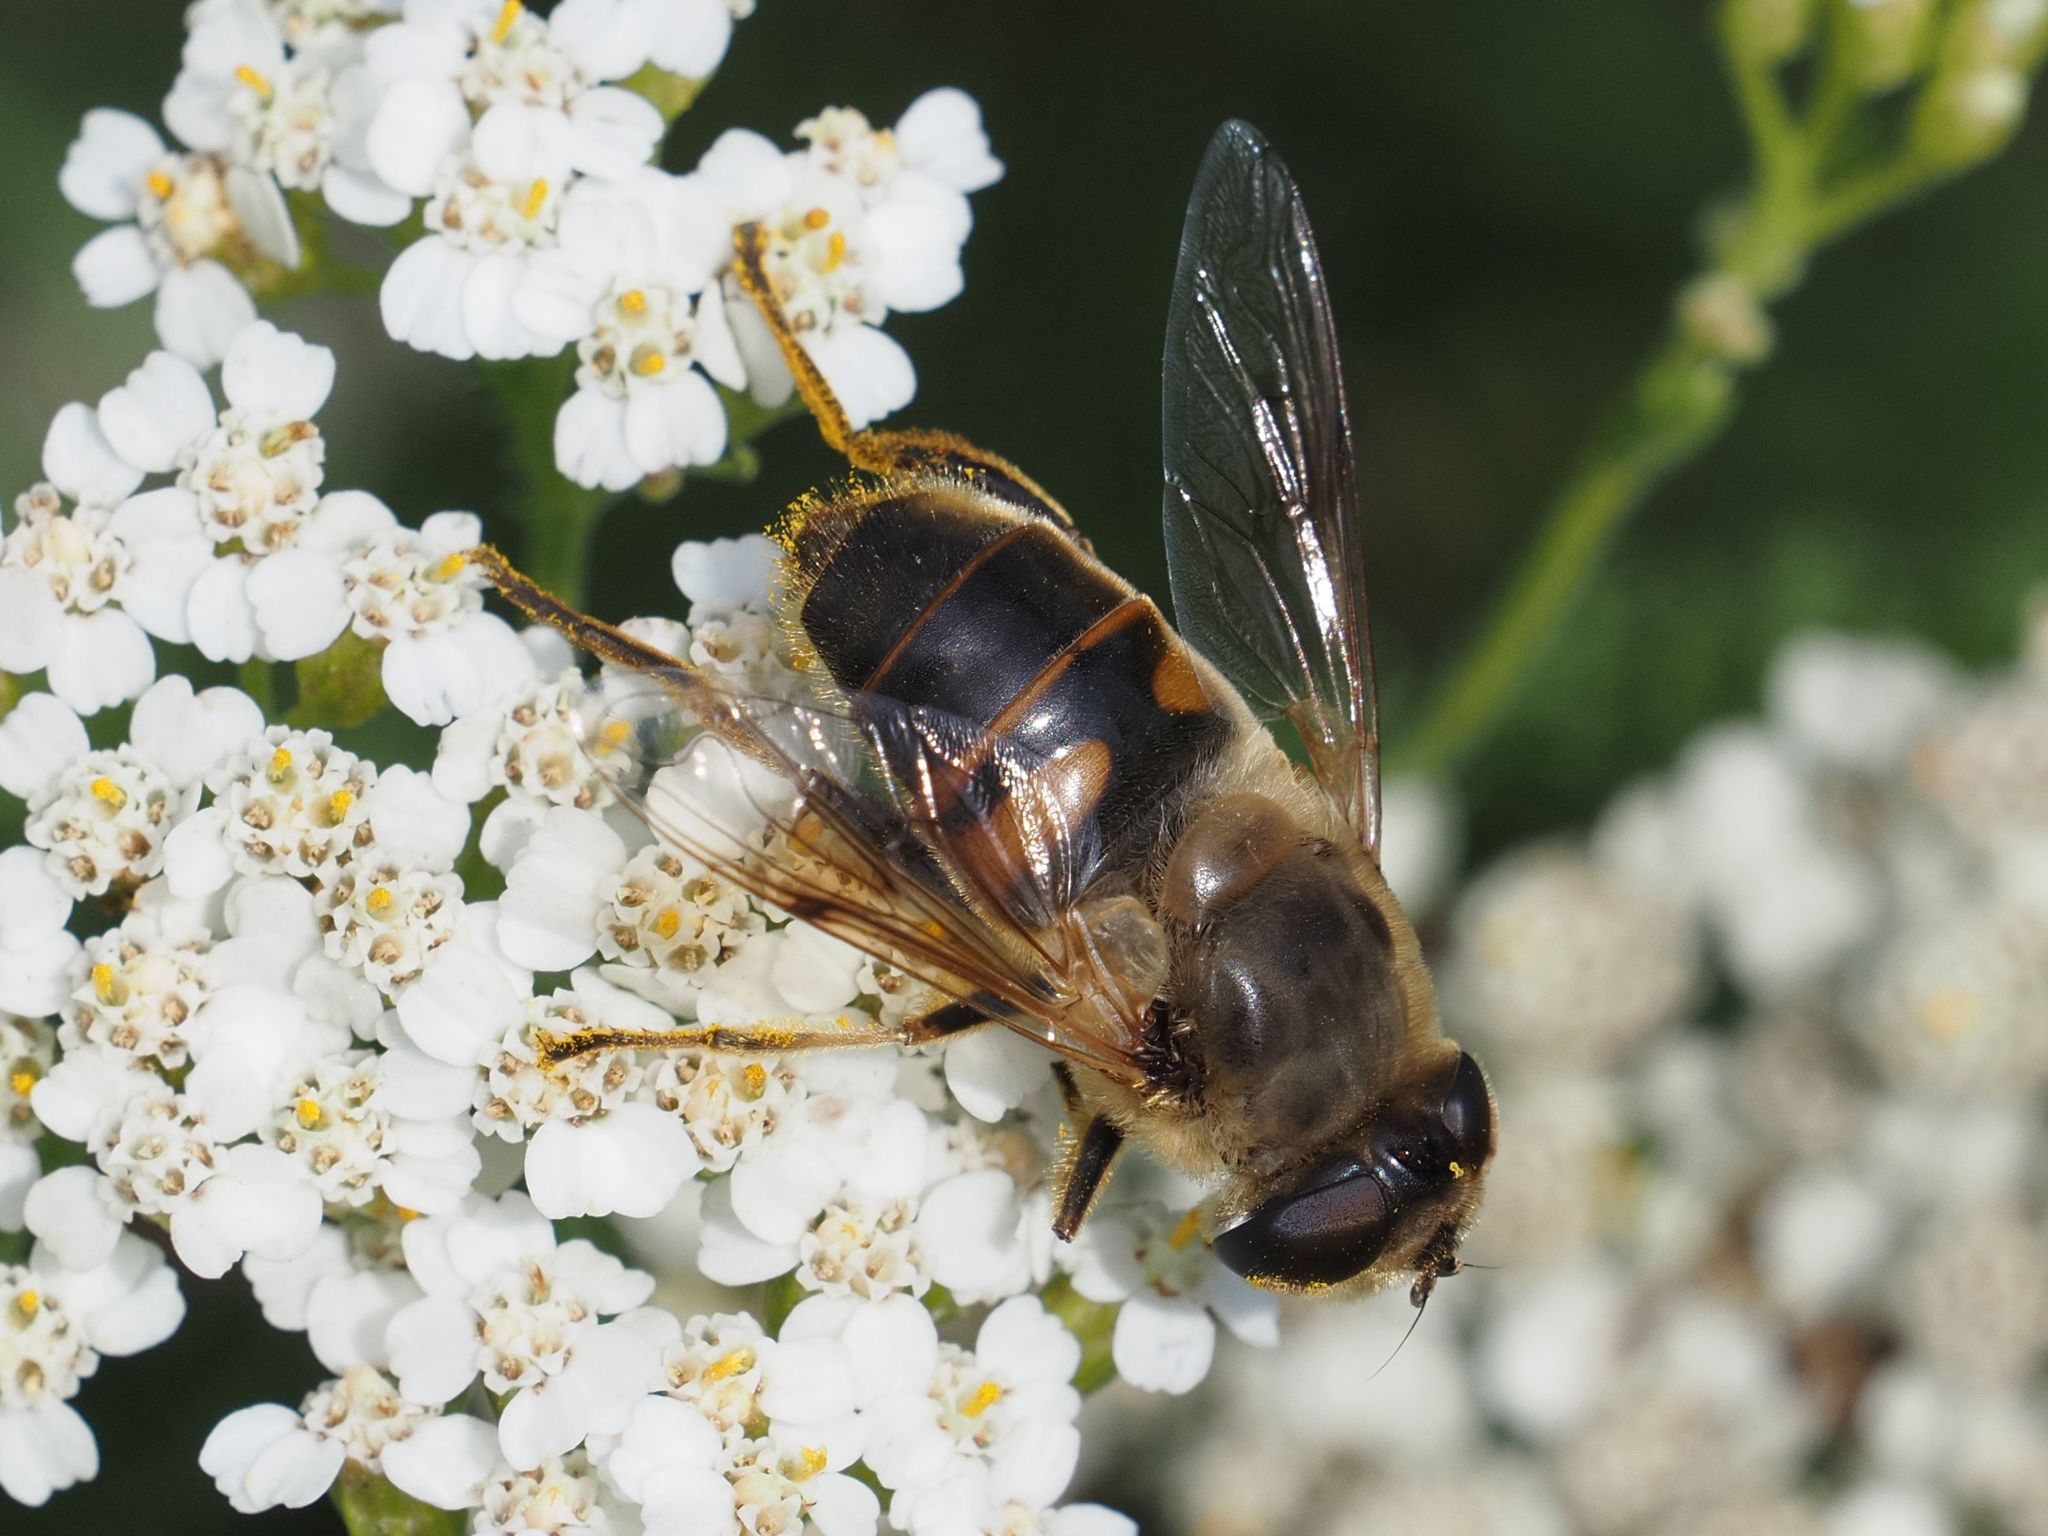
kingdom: Animalia
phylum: Arthropoda
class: Insecta
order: Diptera
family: Syrphidae
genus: Eristalis
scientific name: Eristalis tenax
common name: Drone fly
